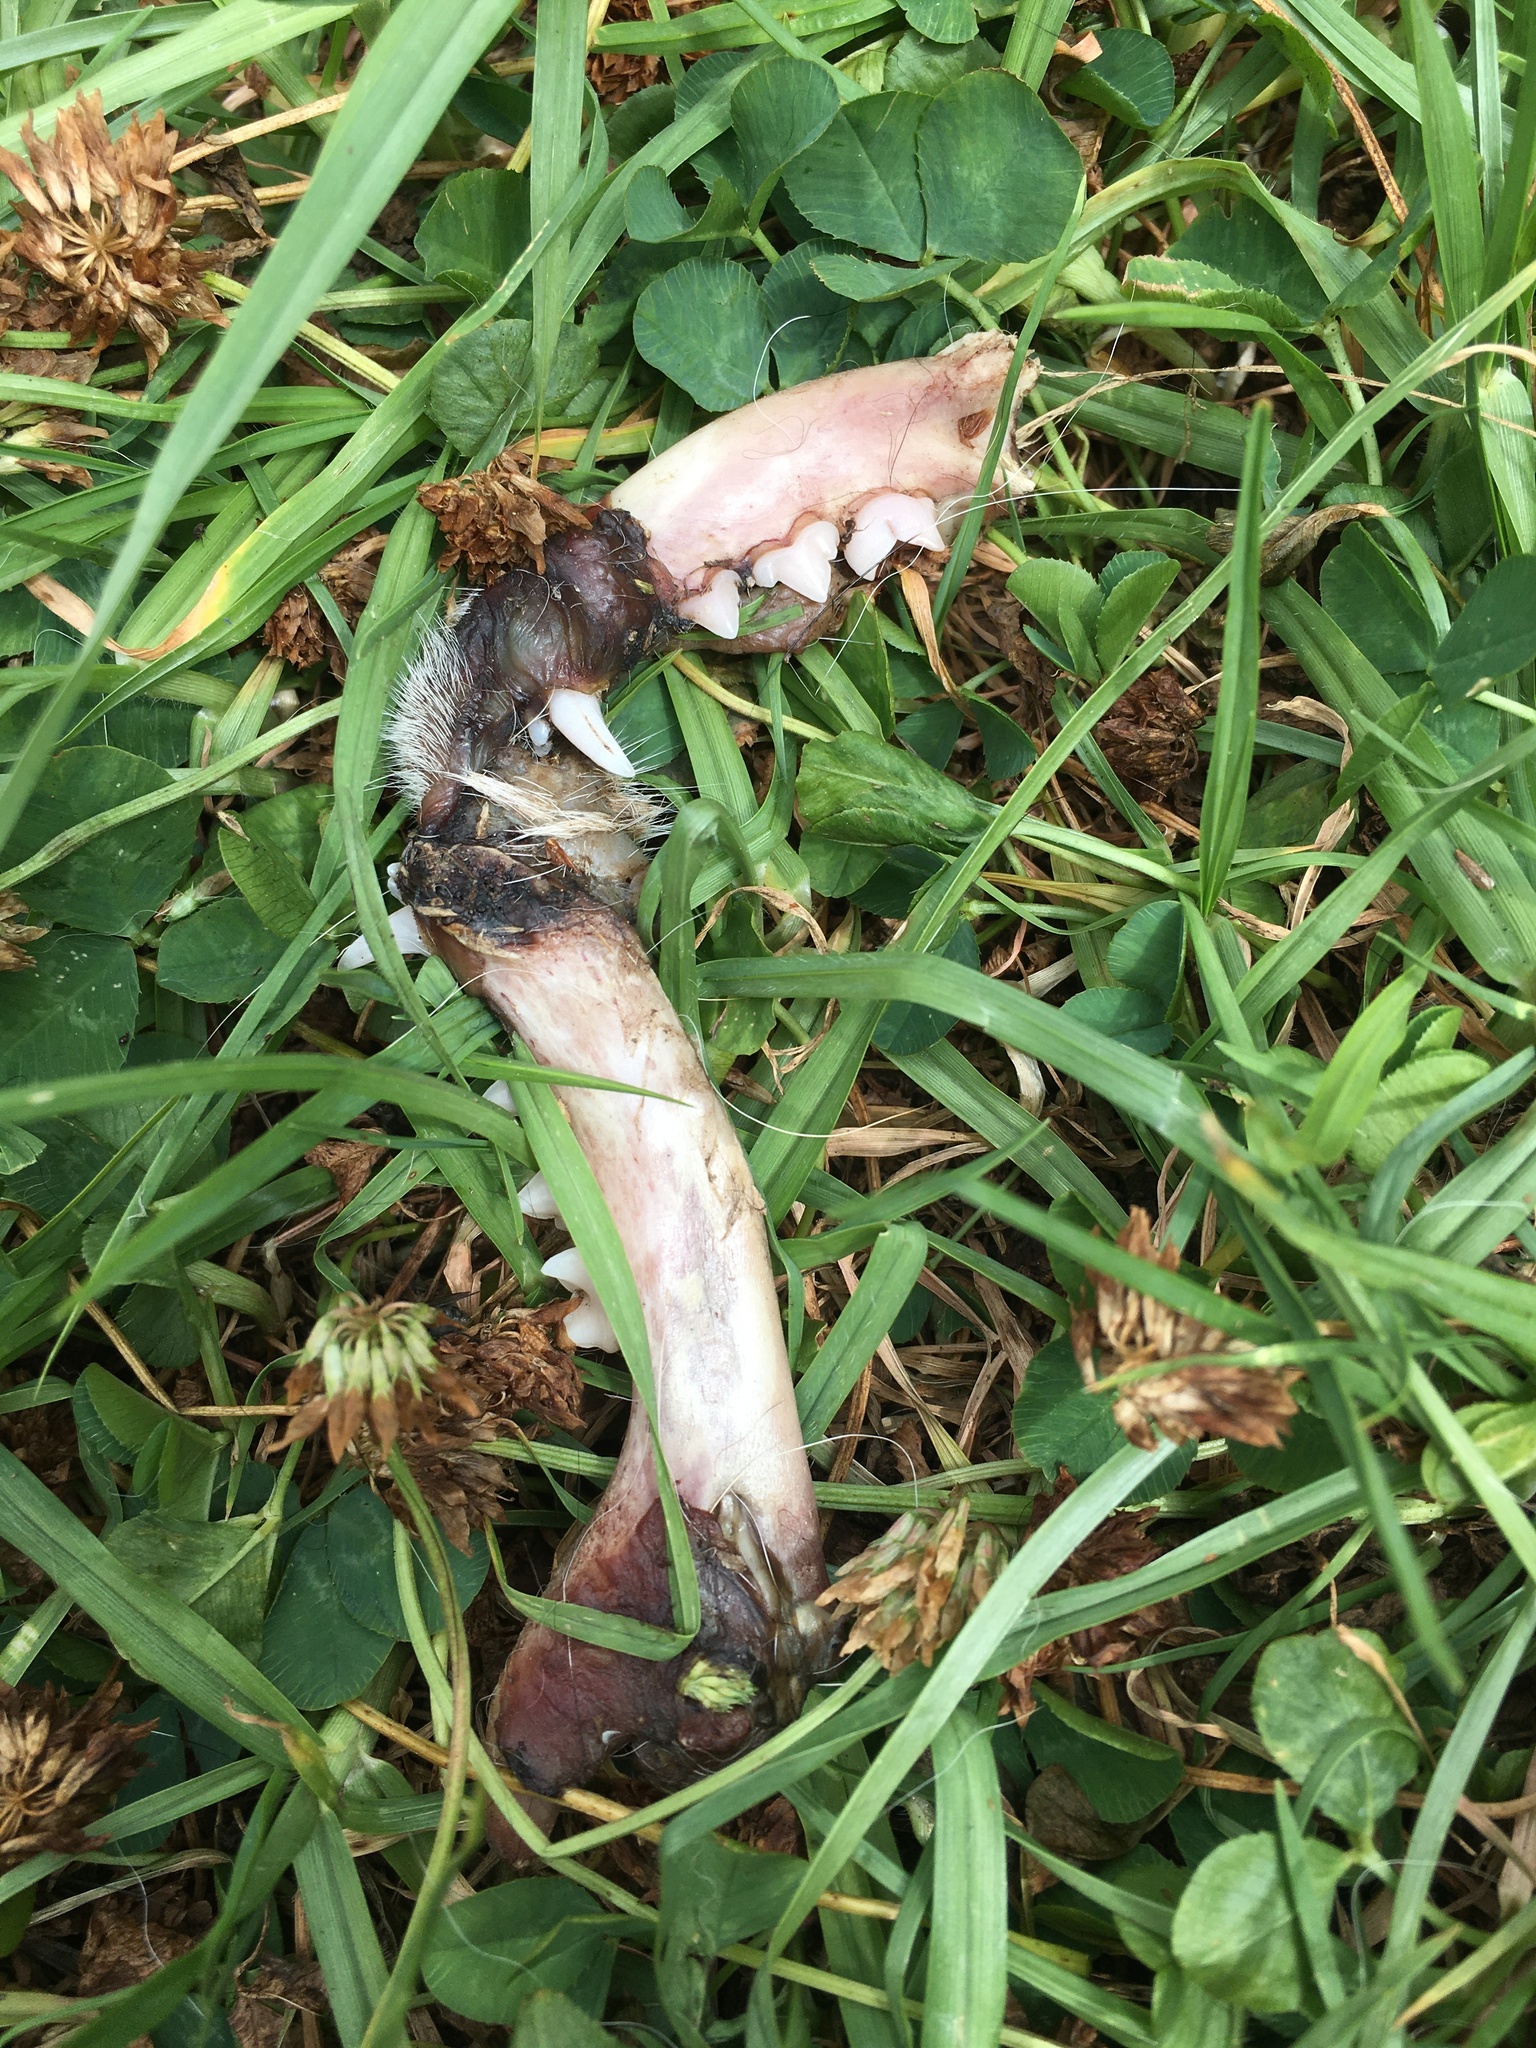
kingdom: Animalia
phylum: Chordata
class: Mammalia
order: Carnivora
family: Felidae
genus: Felis
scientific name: Felis catus
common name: Domestic cat
